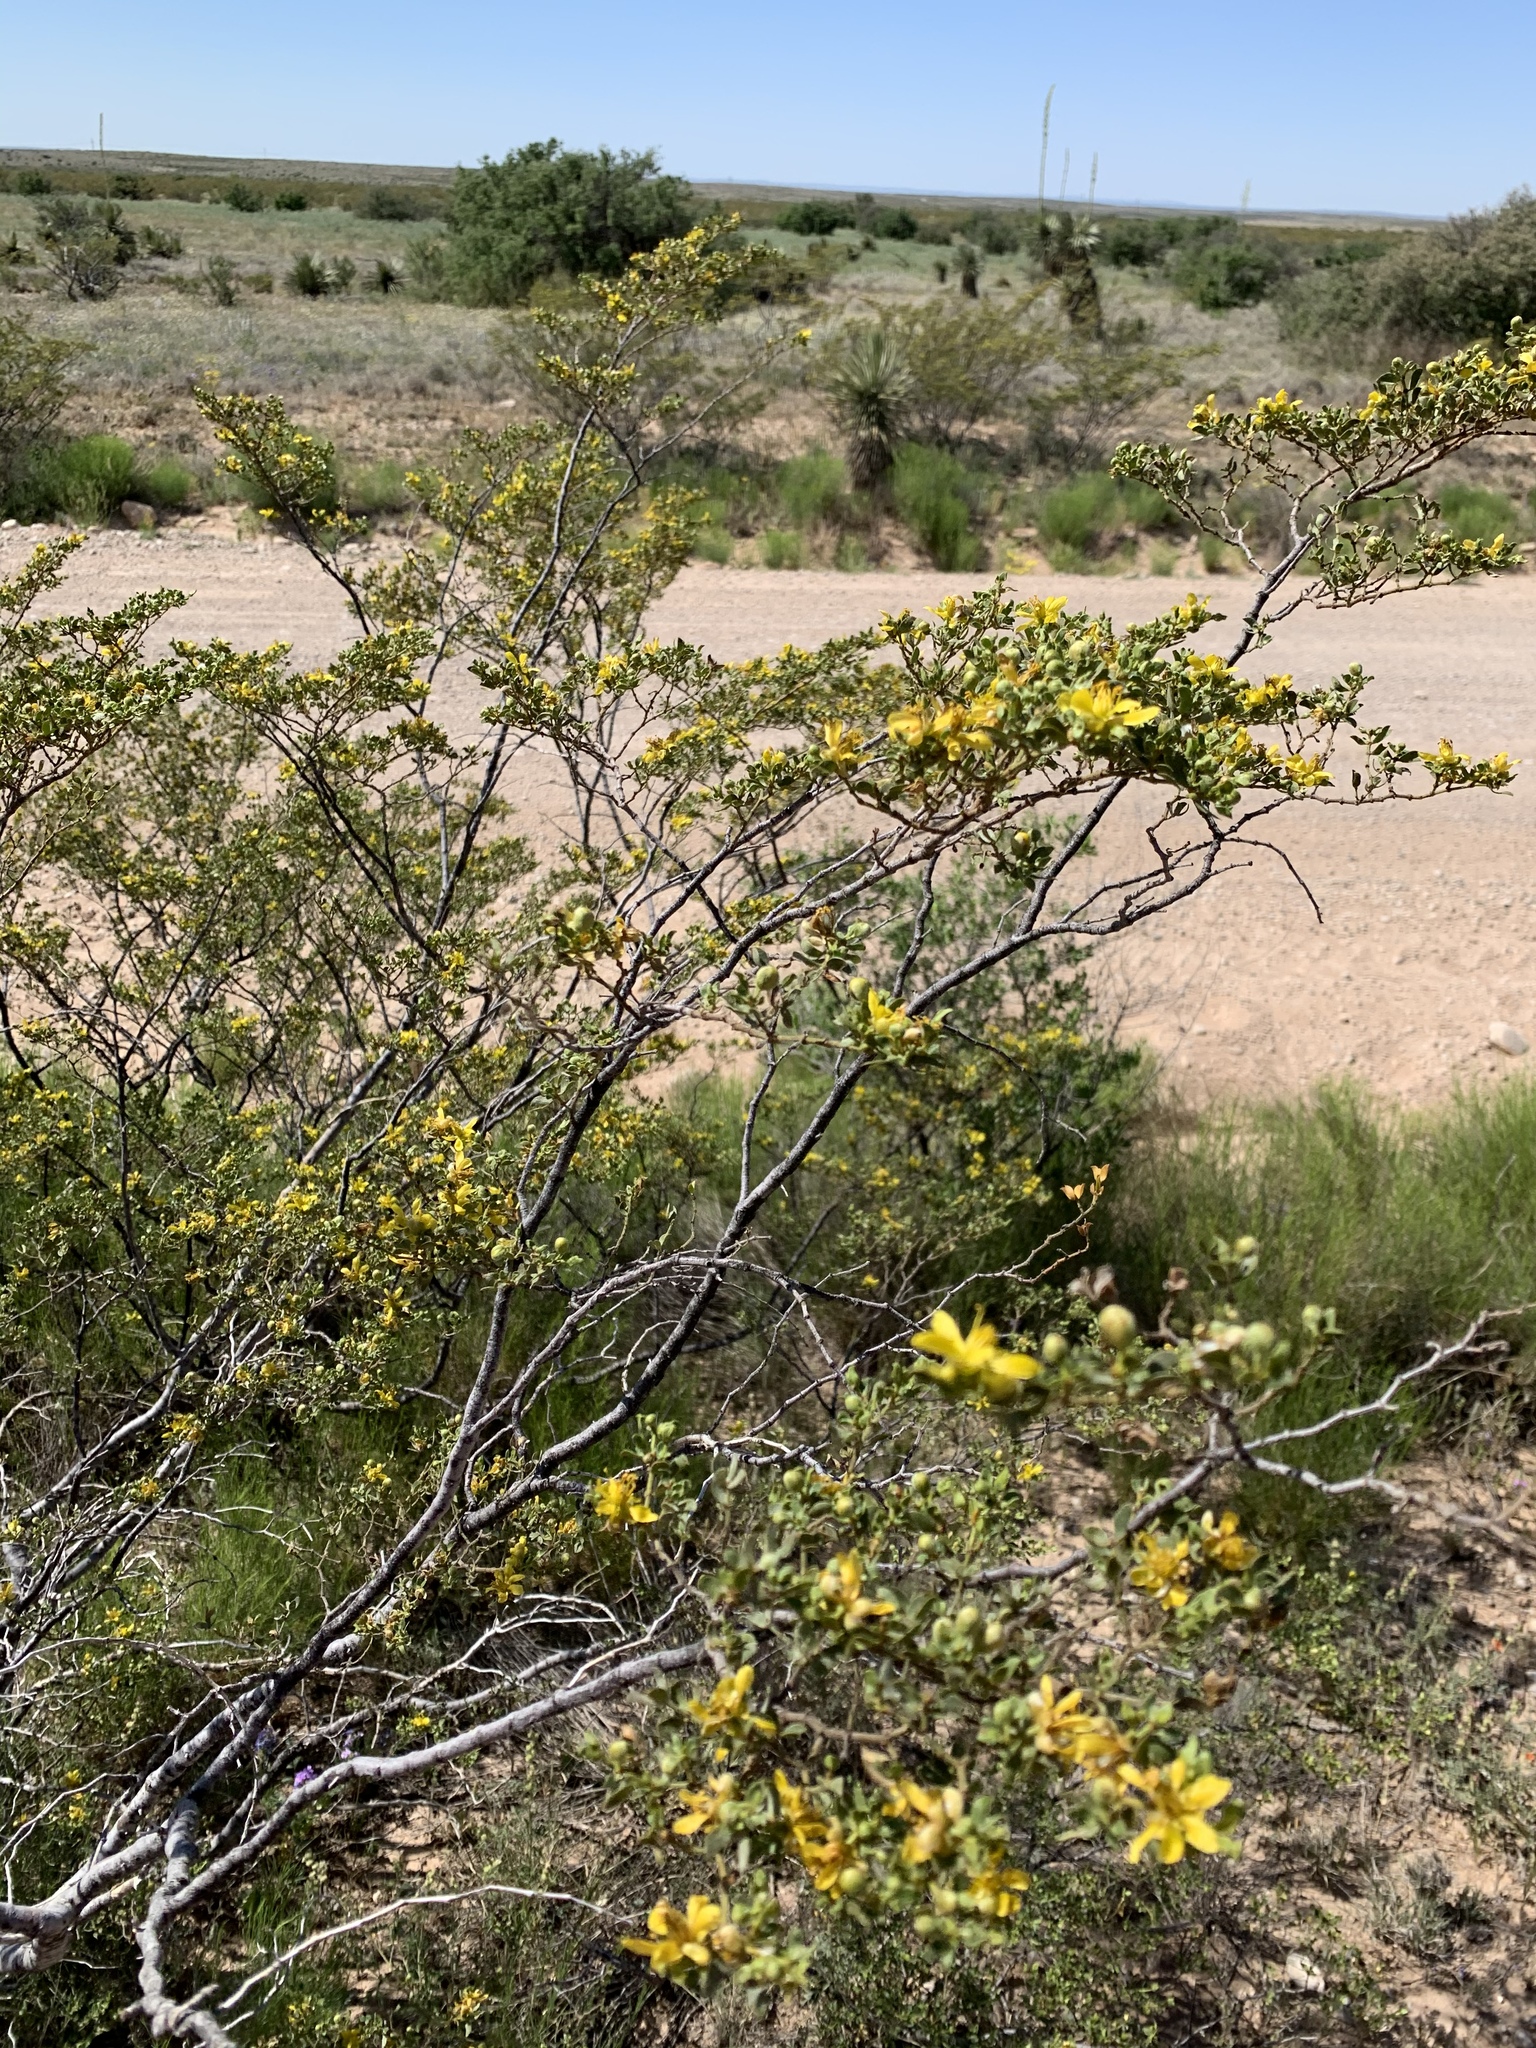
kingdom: Plantae
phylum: Tracheophyta
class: Magnoliopsida
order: Zygophyllales
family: Zygophyllaceae
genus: Larrea
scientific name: Larrea tridentata
